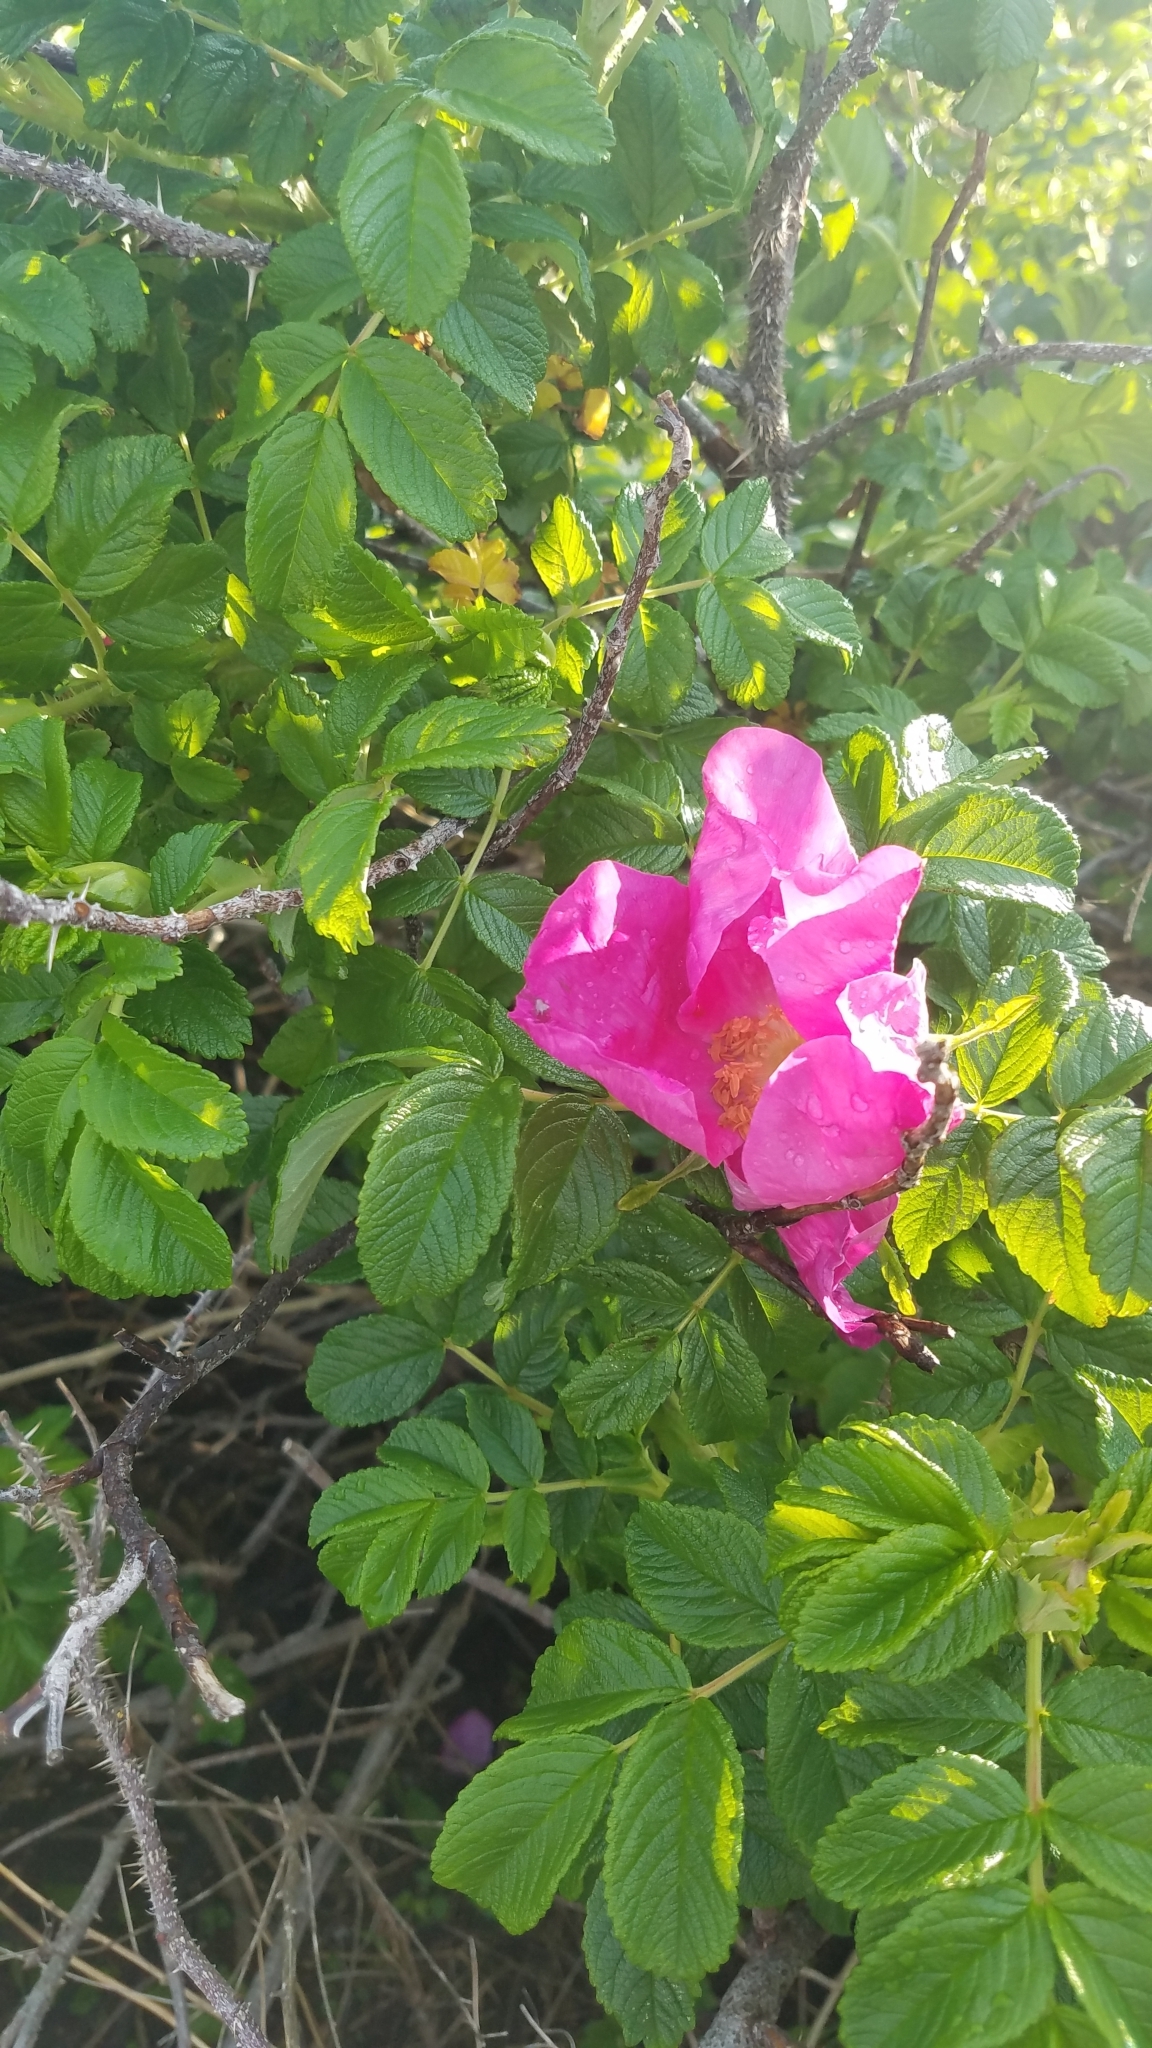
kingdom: Plantae
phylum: Tracheophyta
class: Magnoliopsida
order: Rosales
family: Rosaceae
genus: Rosa
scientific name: Rosa rugosa
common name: Japanese rose
